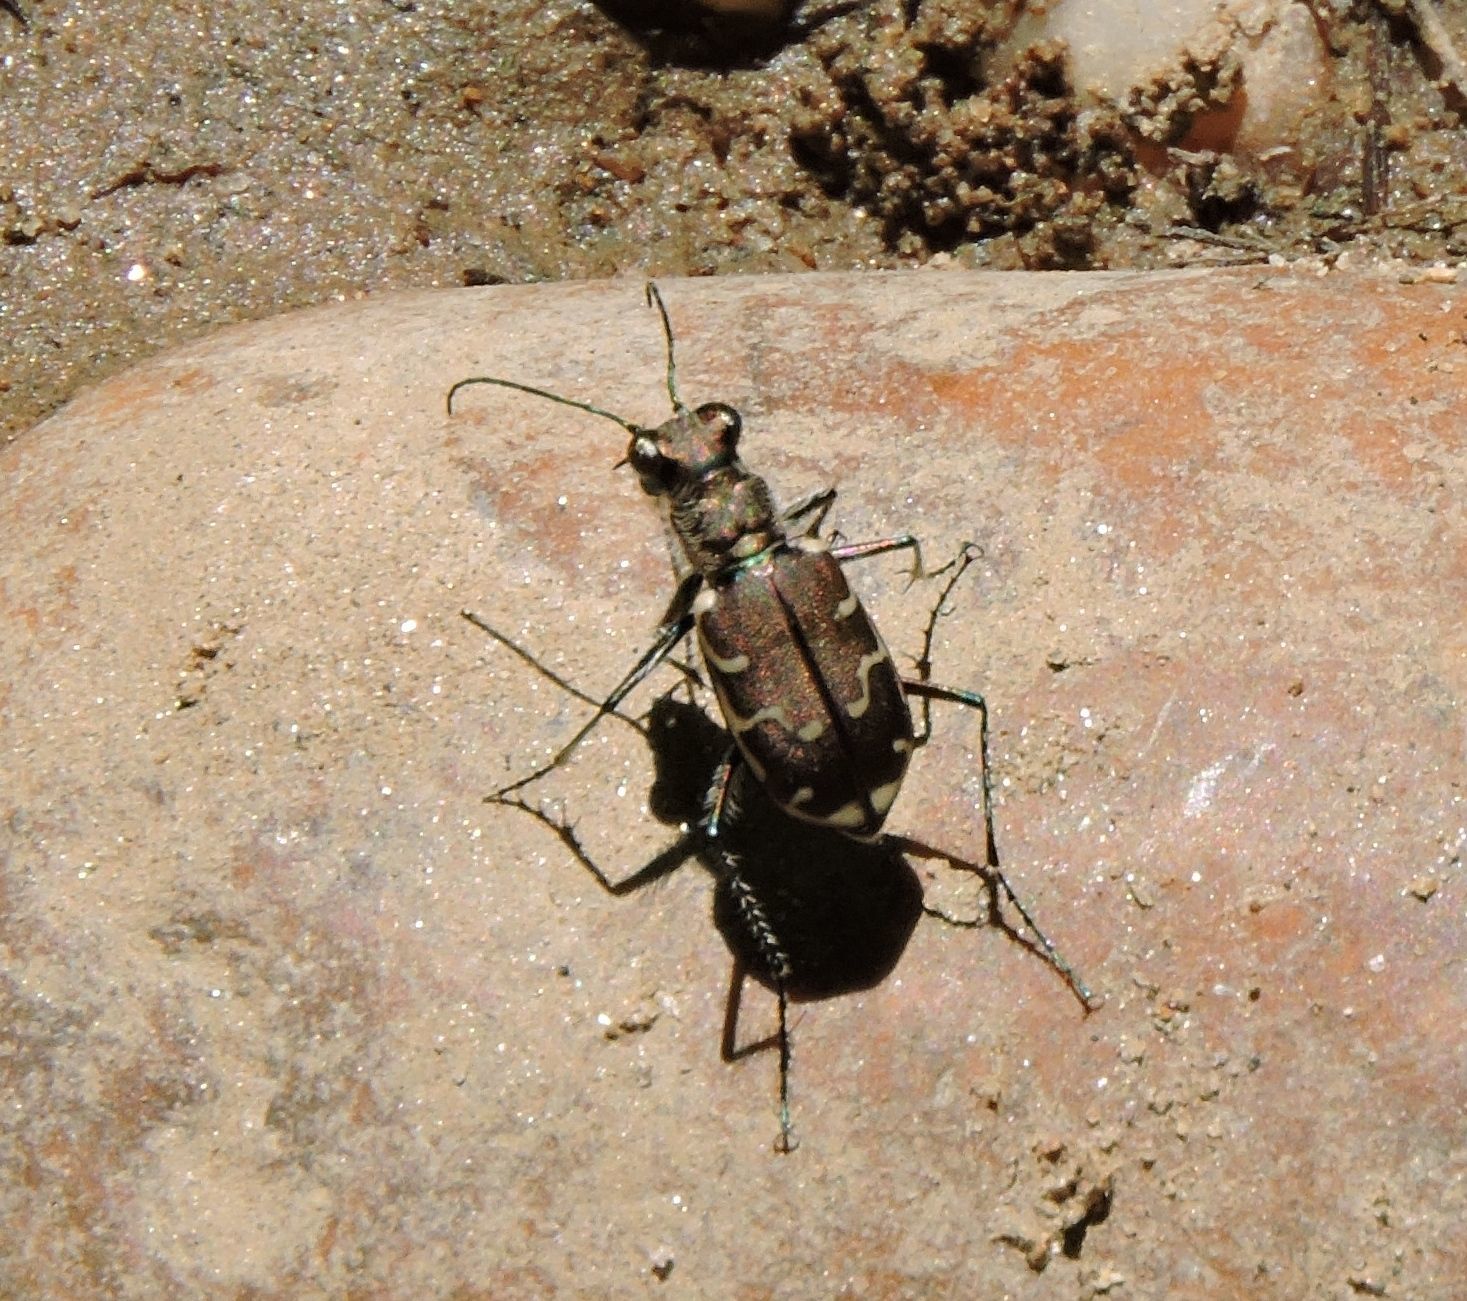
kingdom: Animalia
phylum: Arthropoda
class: Insecta
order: Coleoptera
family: Carabidae
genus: Cicindela
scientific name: Cicindela repanda
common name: Bronzed tiger beetle
